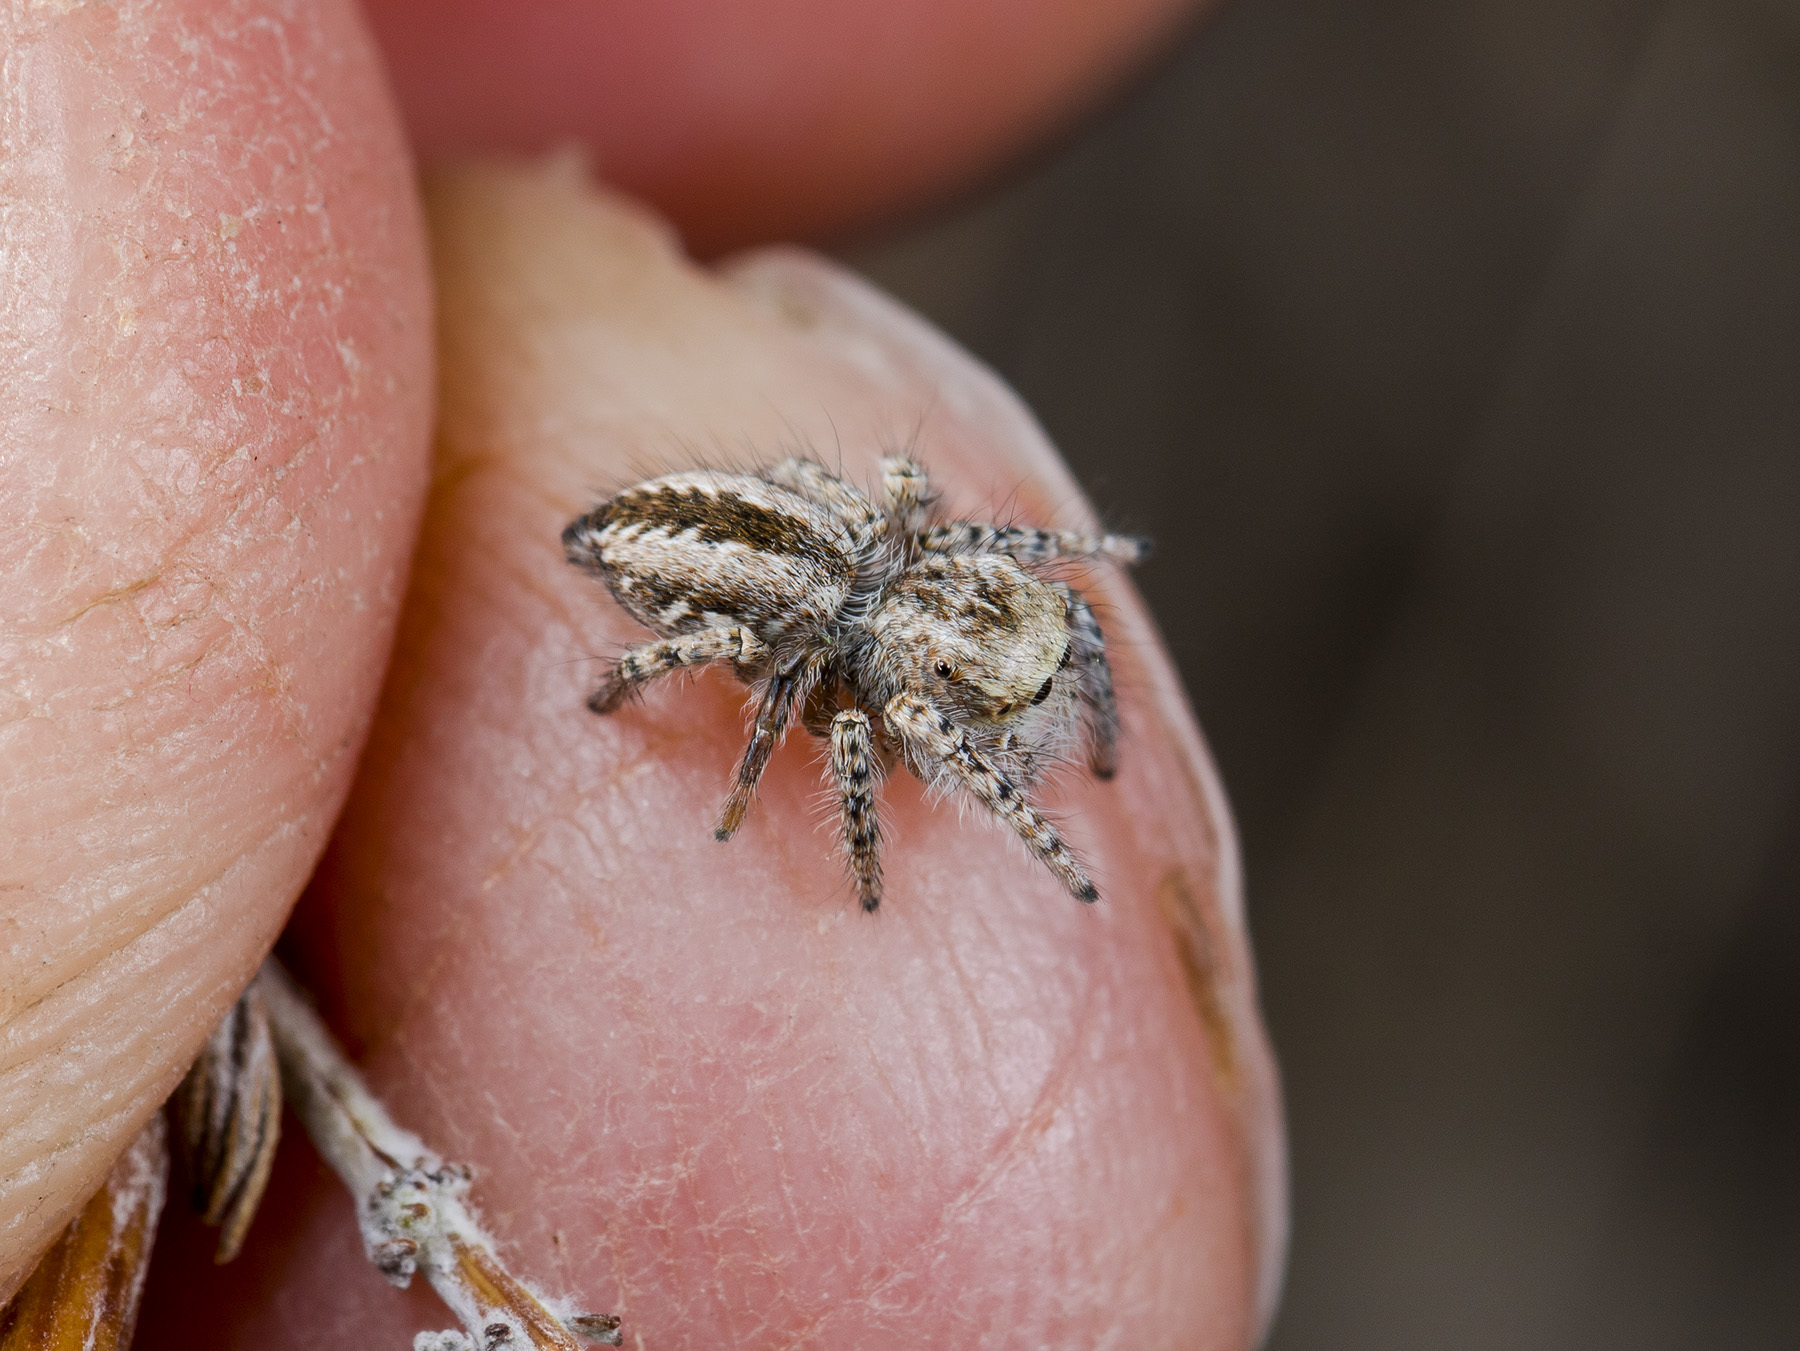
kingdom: Animalia
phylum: Arthropoda
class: Arachnida
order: Araneae
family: Salticidae
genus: Mogrus
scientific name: Mogrus larisae
